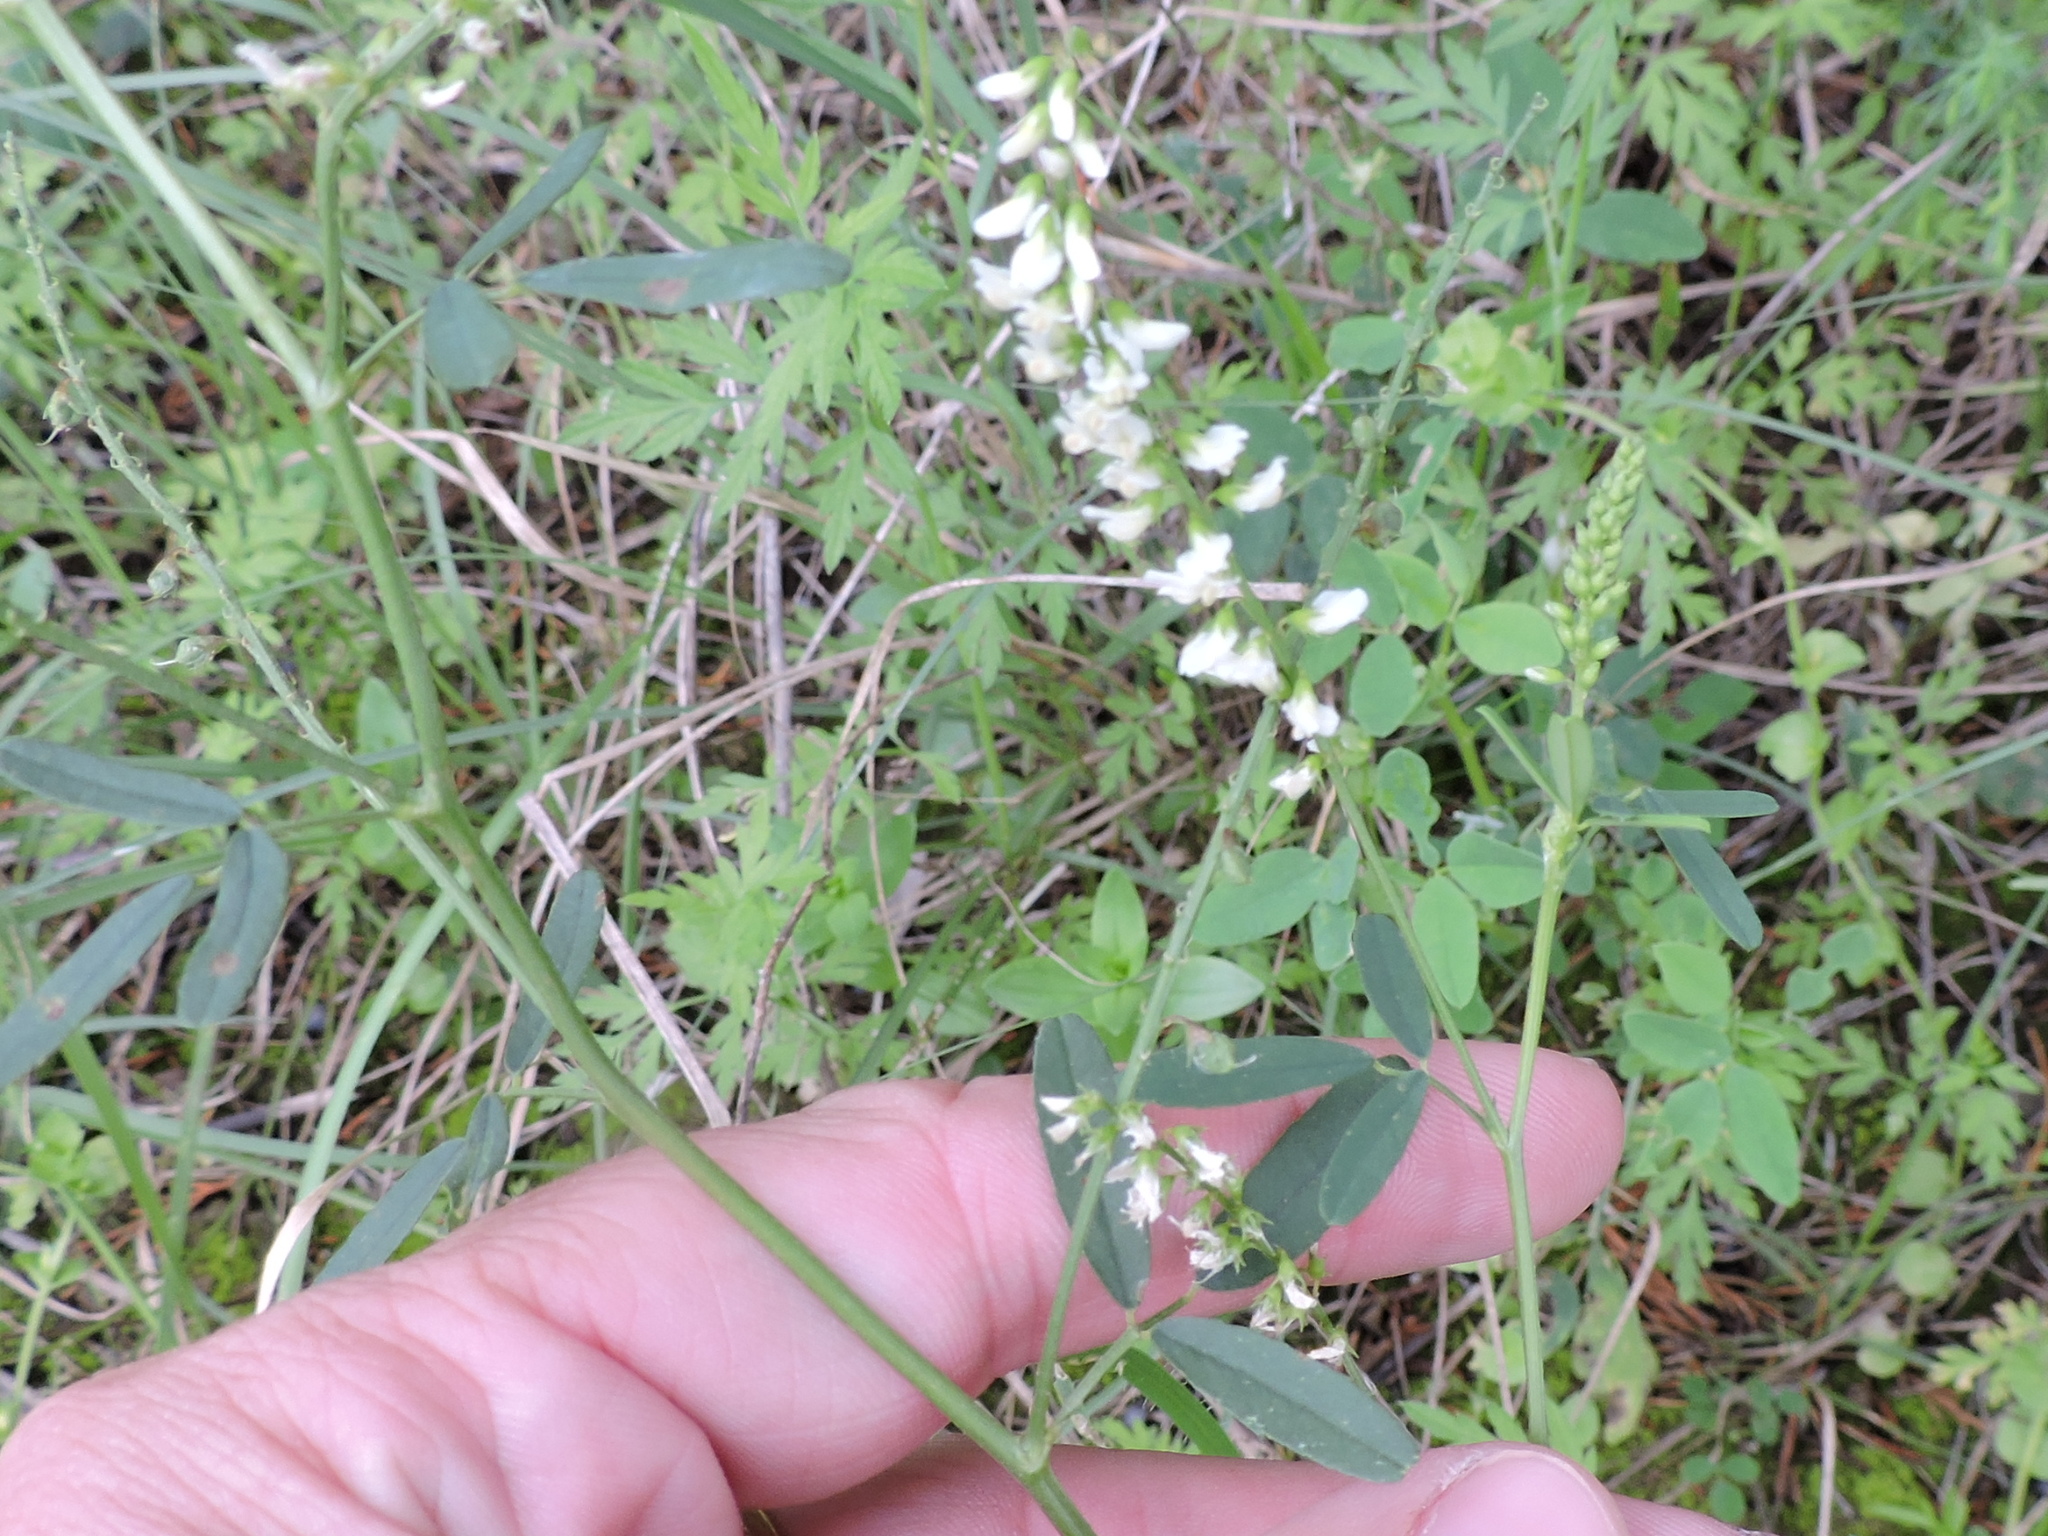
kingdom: Plantae
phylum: Tracheophyta
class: Magnoliopsida
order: Fabales
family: Fabaceae
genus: Melilotus
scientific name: Melilotus albus
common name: White melilot
